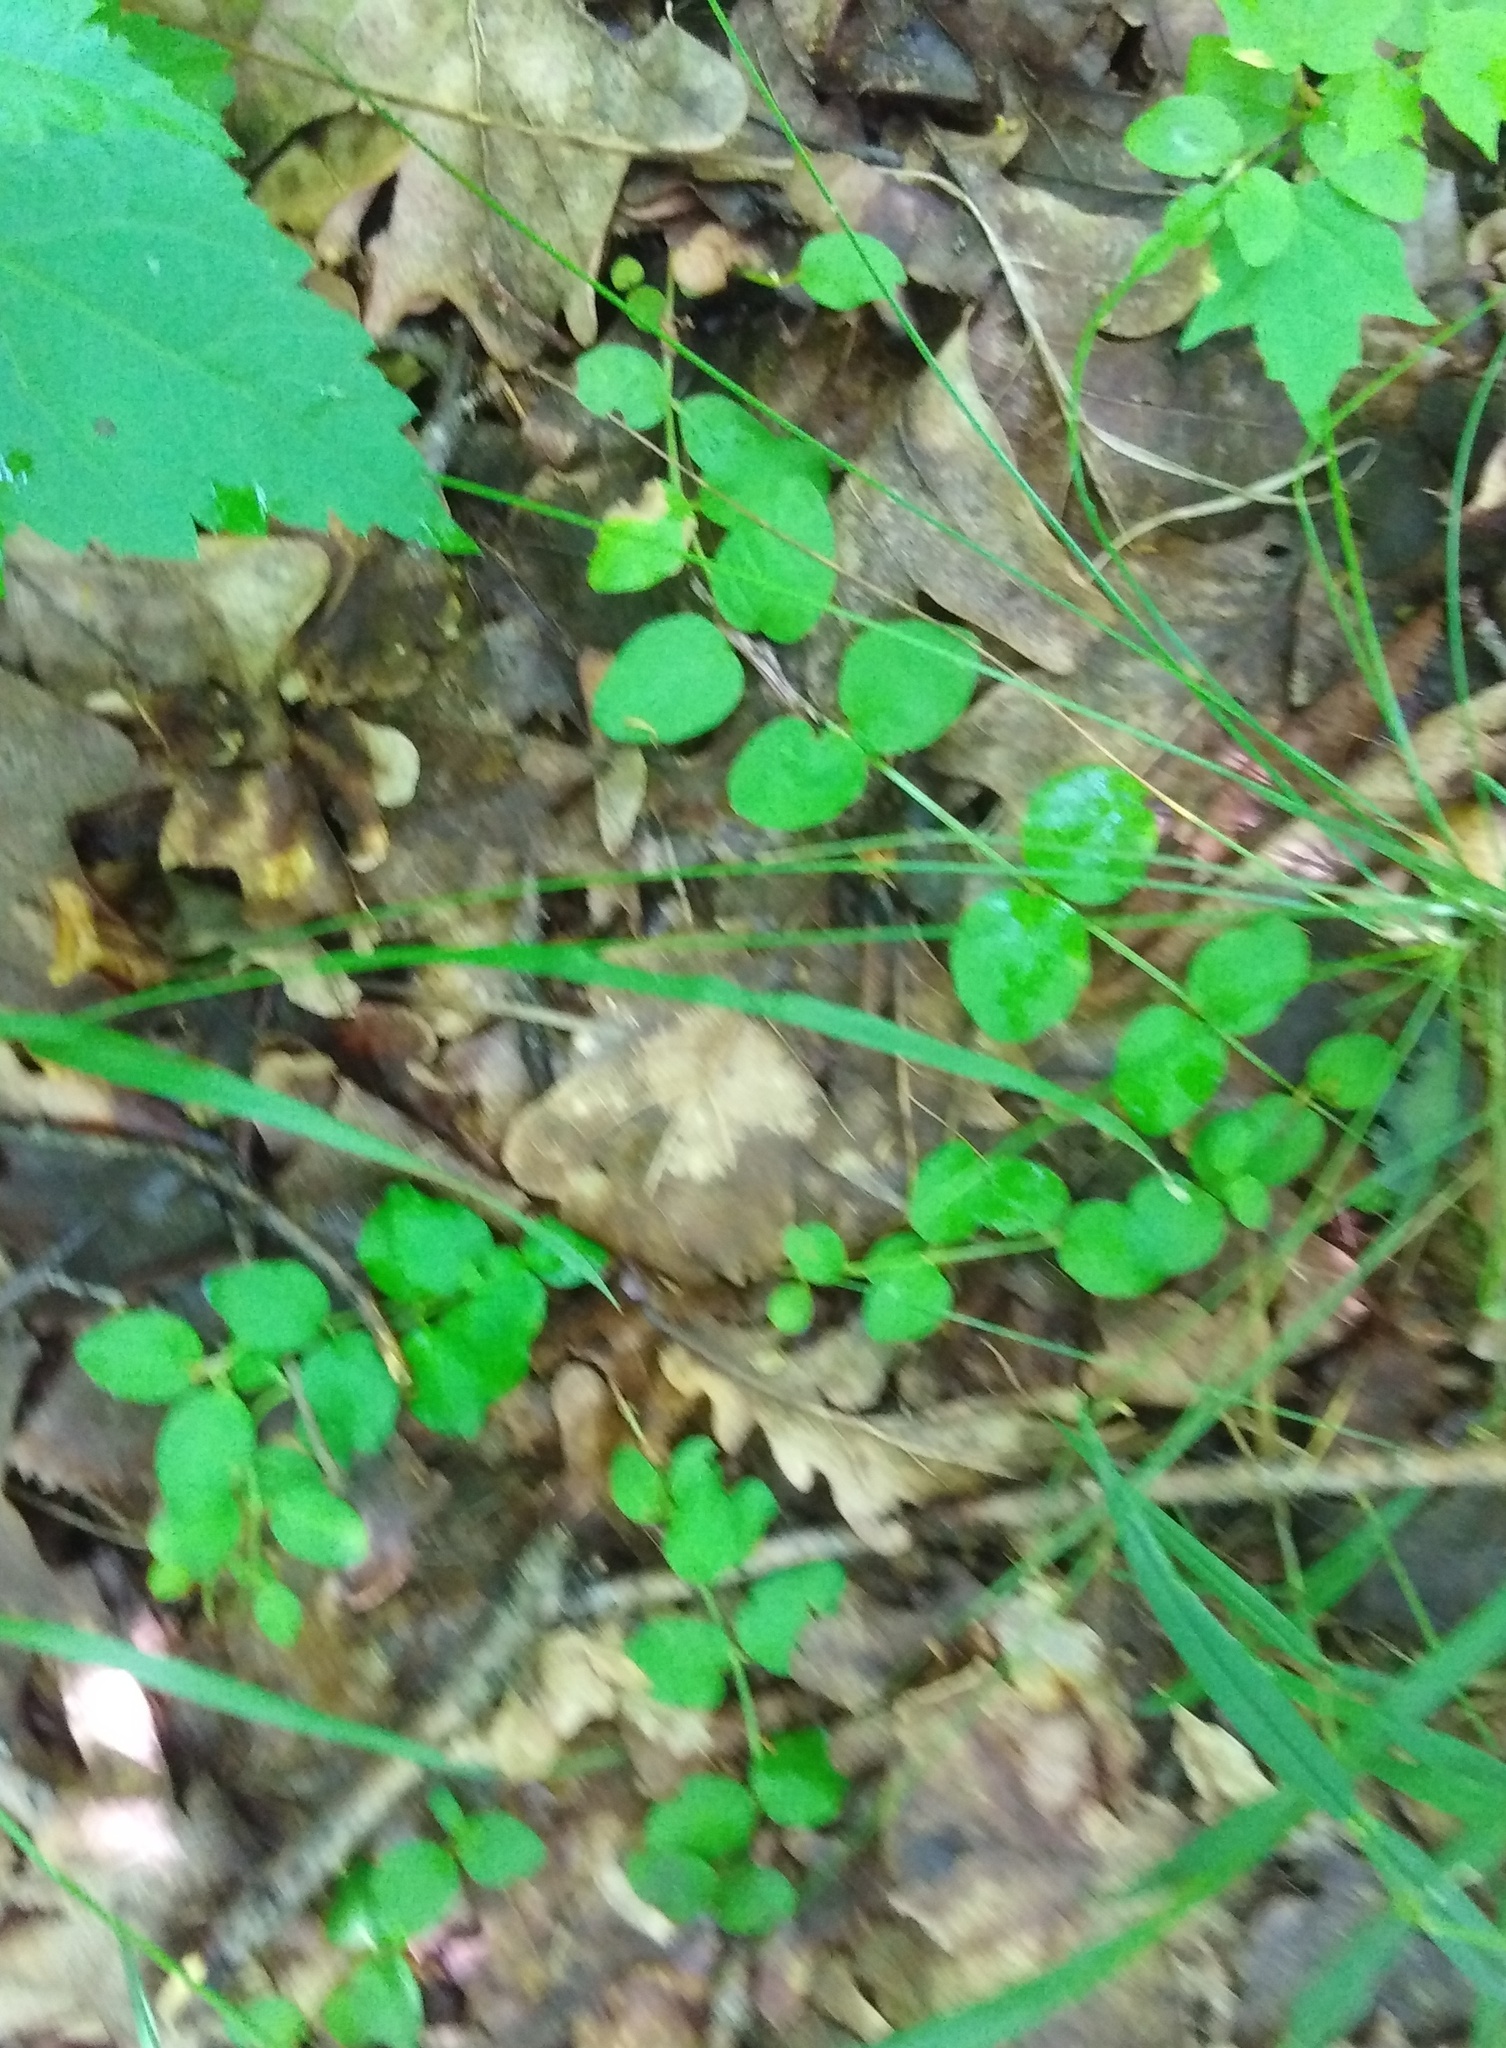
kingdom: Plantae
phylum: Tracheophyta
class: Magnoliopsida
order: Ericales
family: Primulaceae
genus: Lysimachia
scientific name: Lysimachia nummularia
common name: Moneywort
